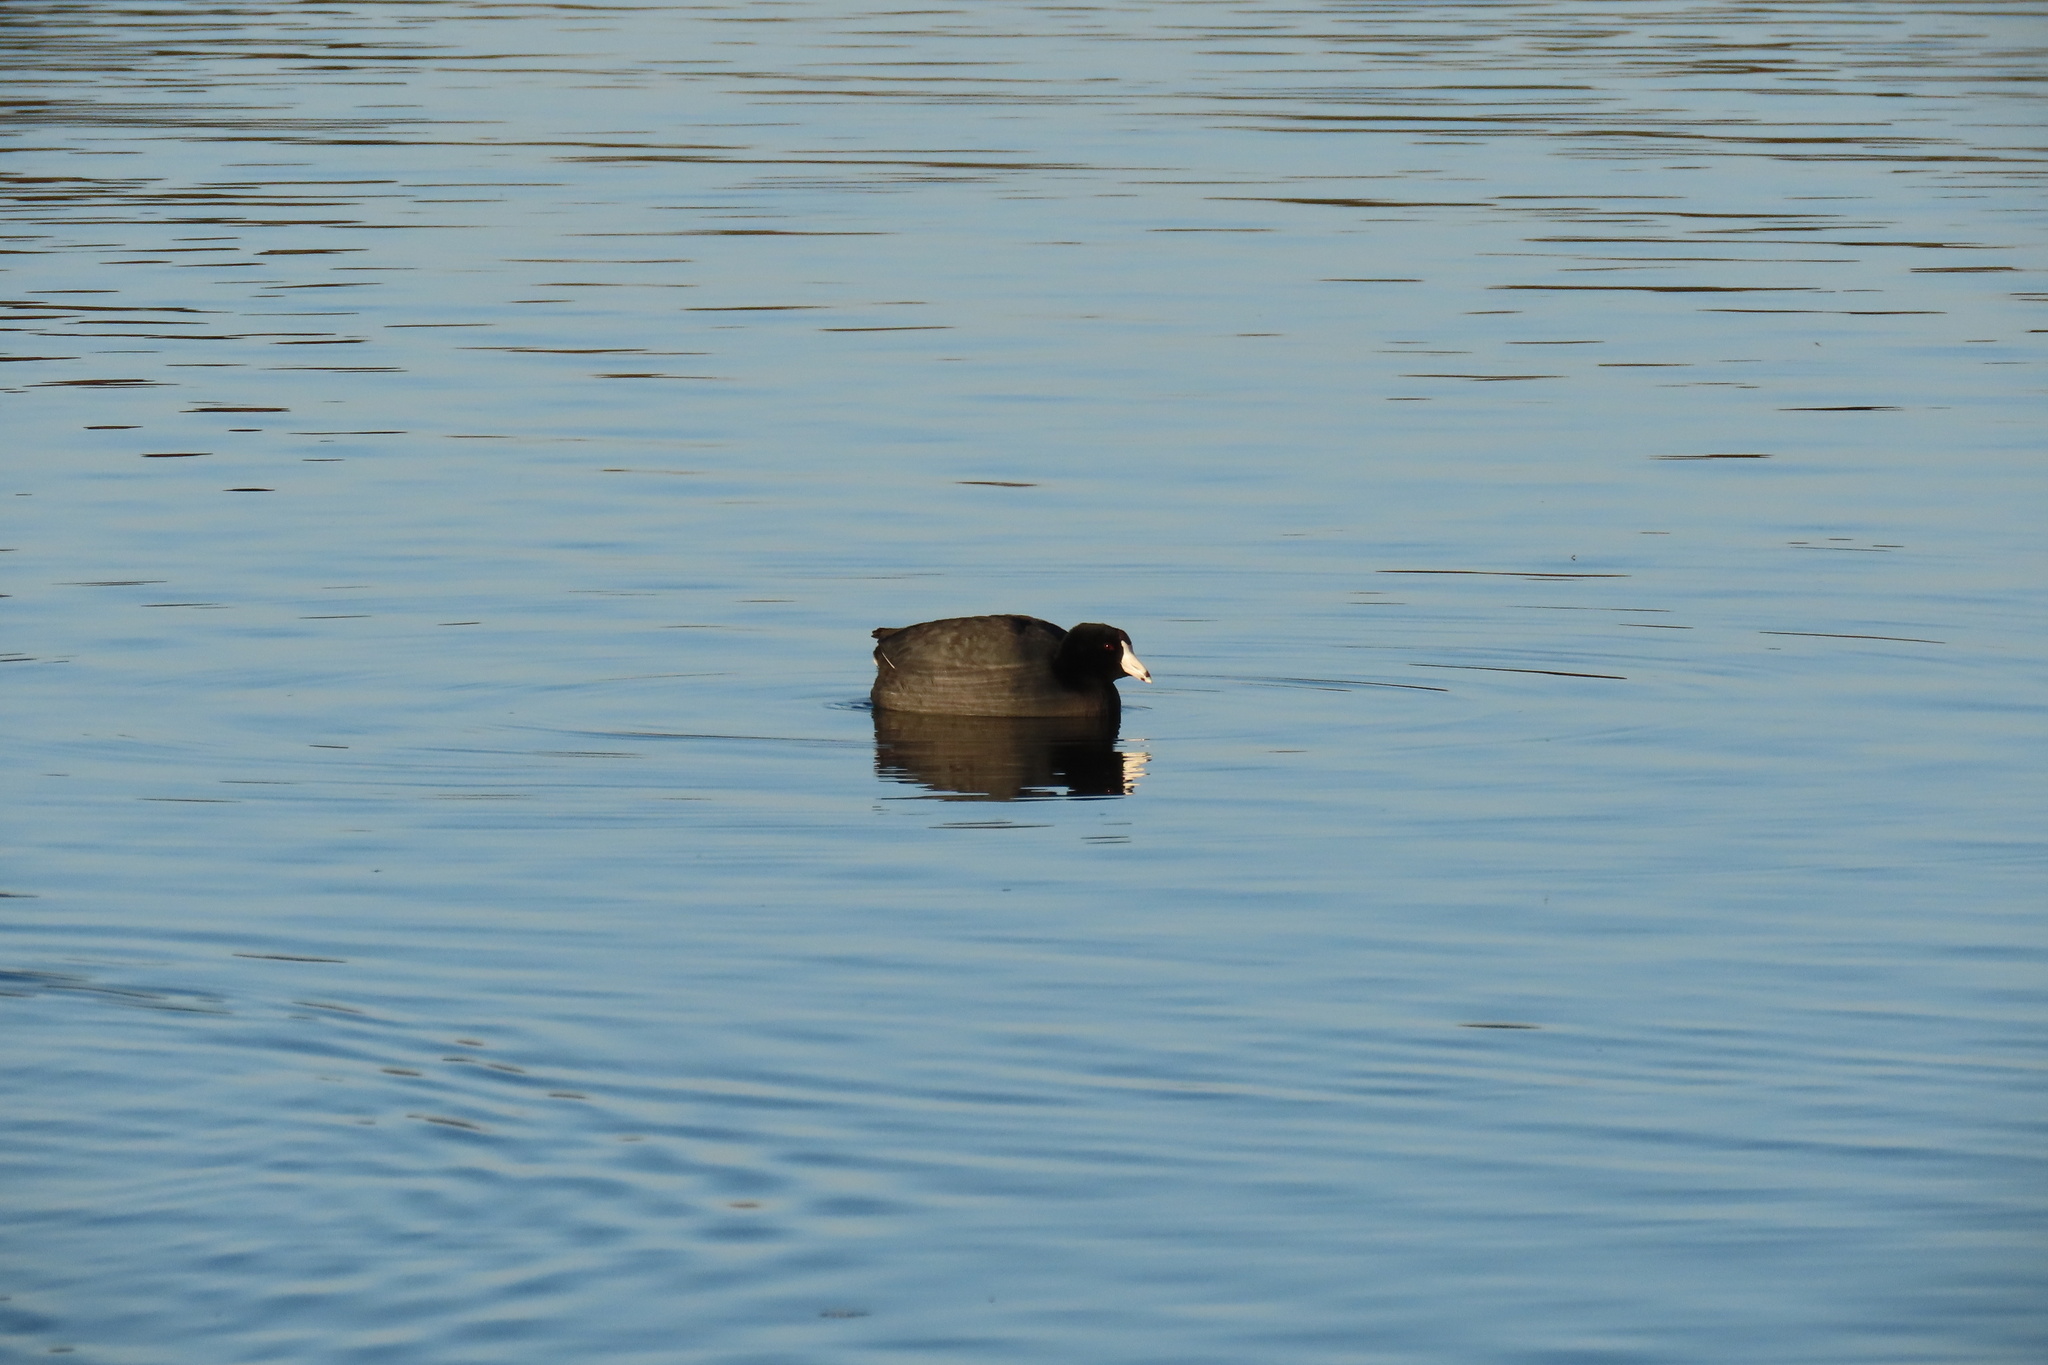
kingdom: Animalia
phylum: Chordata
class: Aves
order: Gruiformes
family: Rallidae
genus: Fulica
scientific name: Fulica americana
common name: American coot
